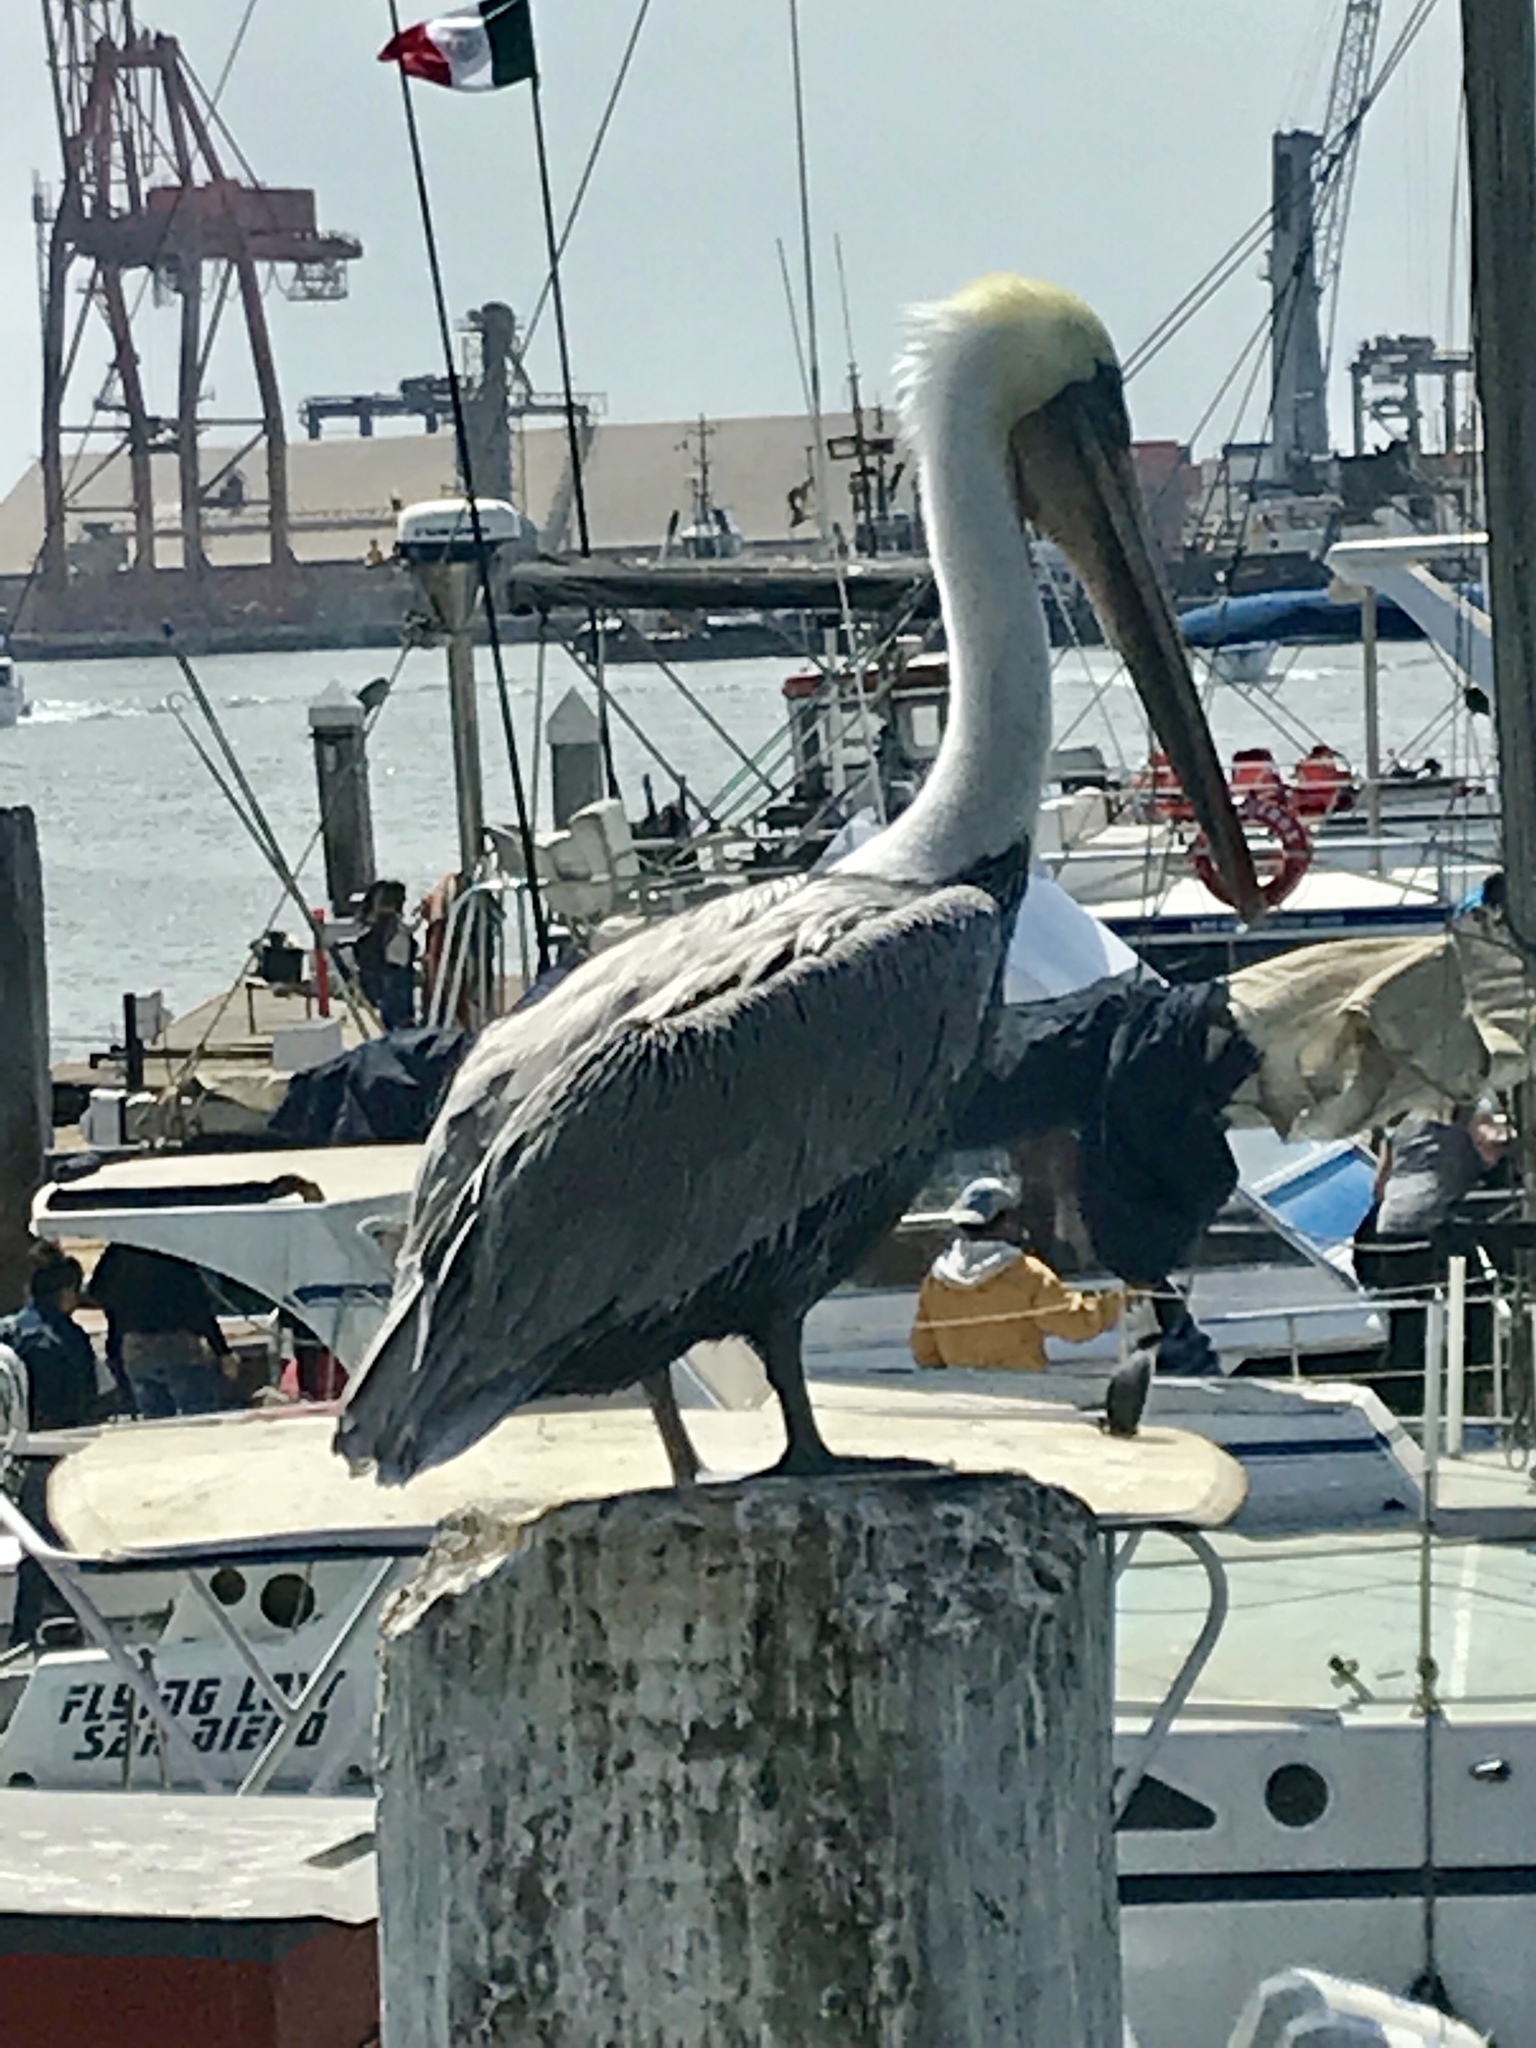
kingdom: Animalia
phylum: Chordata
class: Aves
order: Pelecaniformes
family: Pelecanidae
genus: Pelecanus
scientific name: Pelecanus occidentalis
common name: Brown pelican
